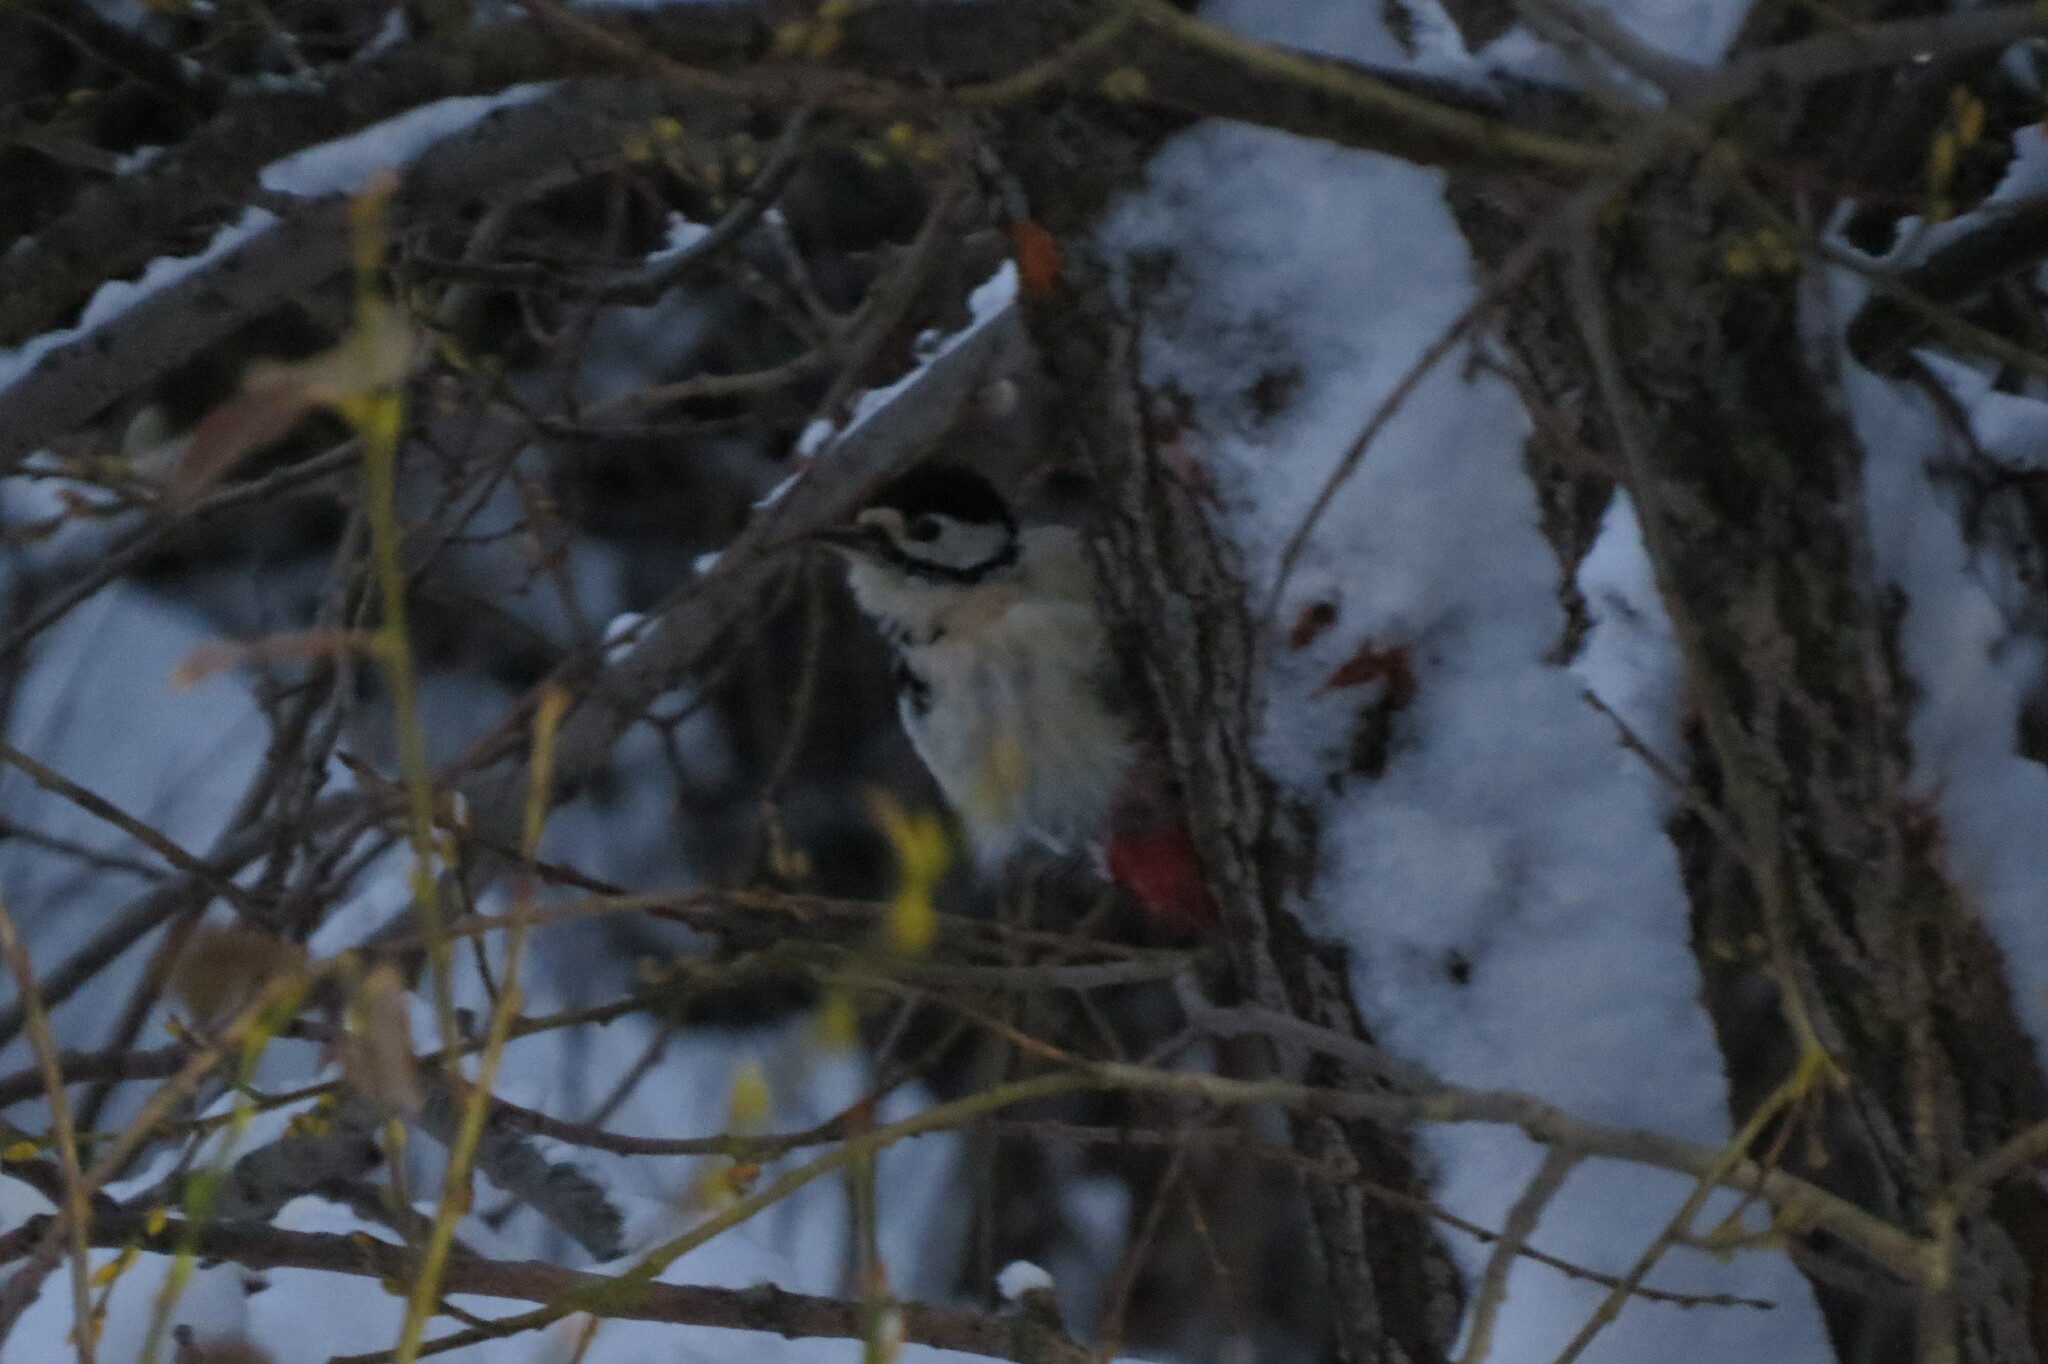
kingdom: Animalia
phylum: Chordata
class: Aves
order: Piciformes
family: Picidae
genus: Dendrocopos
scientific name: Dendrocopos major
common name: Great spotted woodpecker
